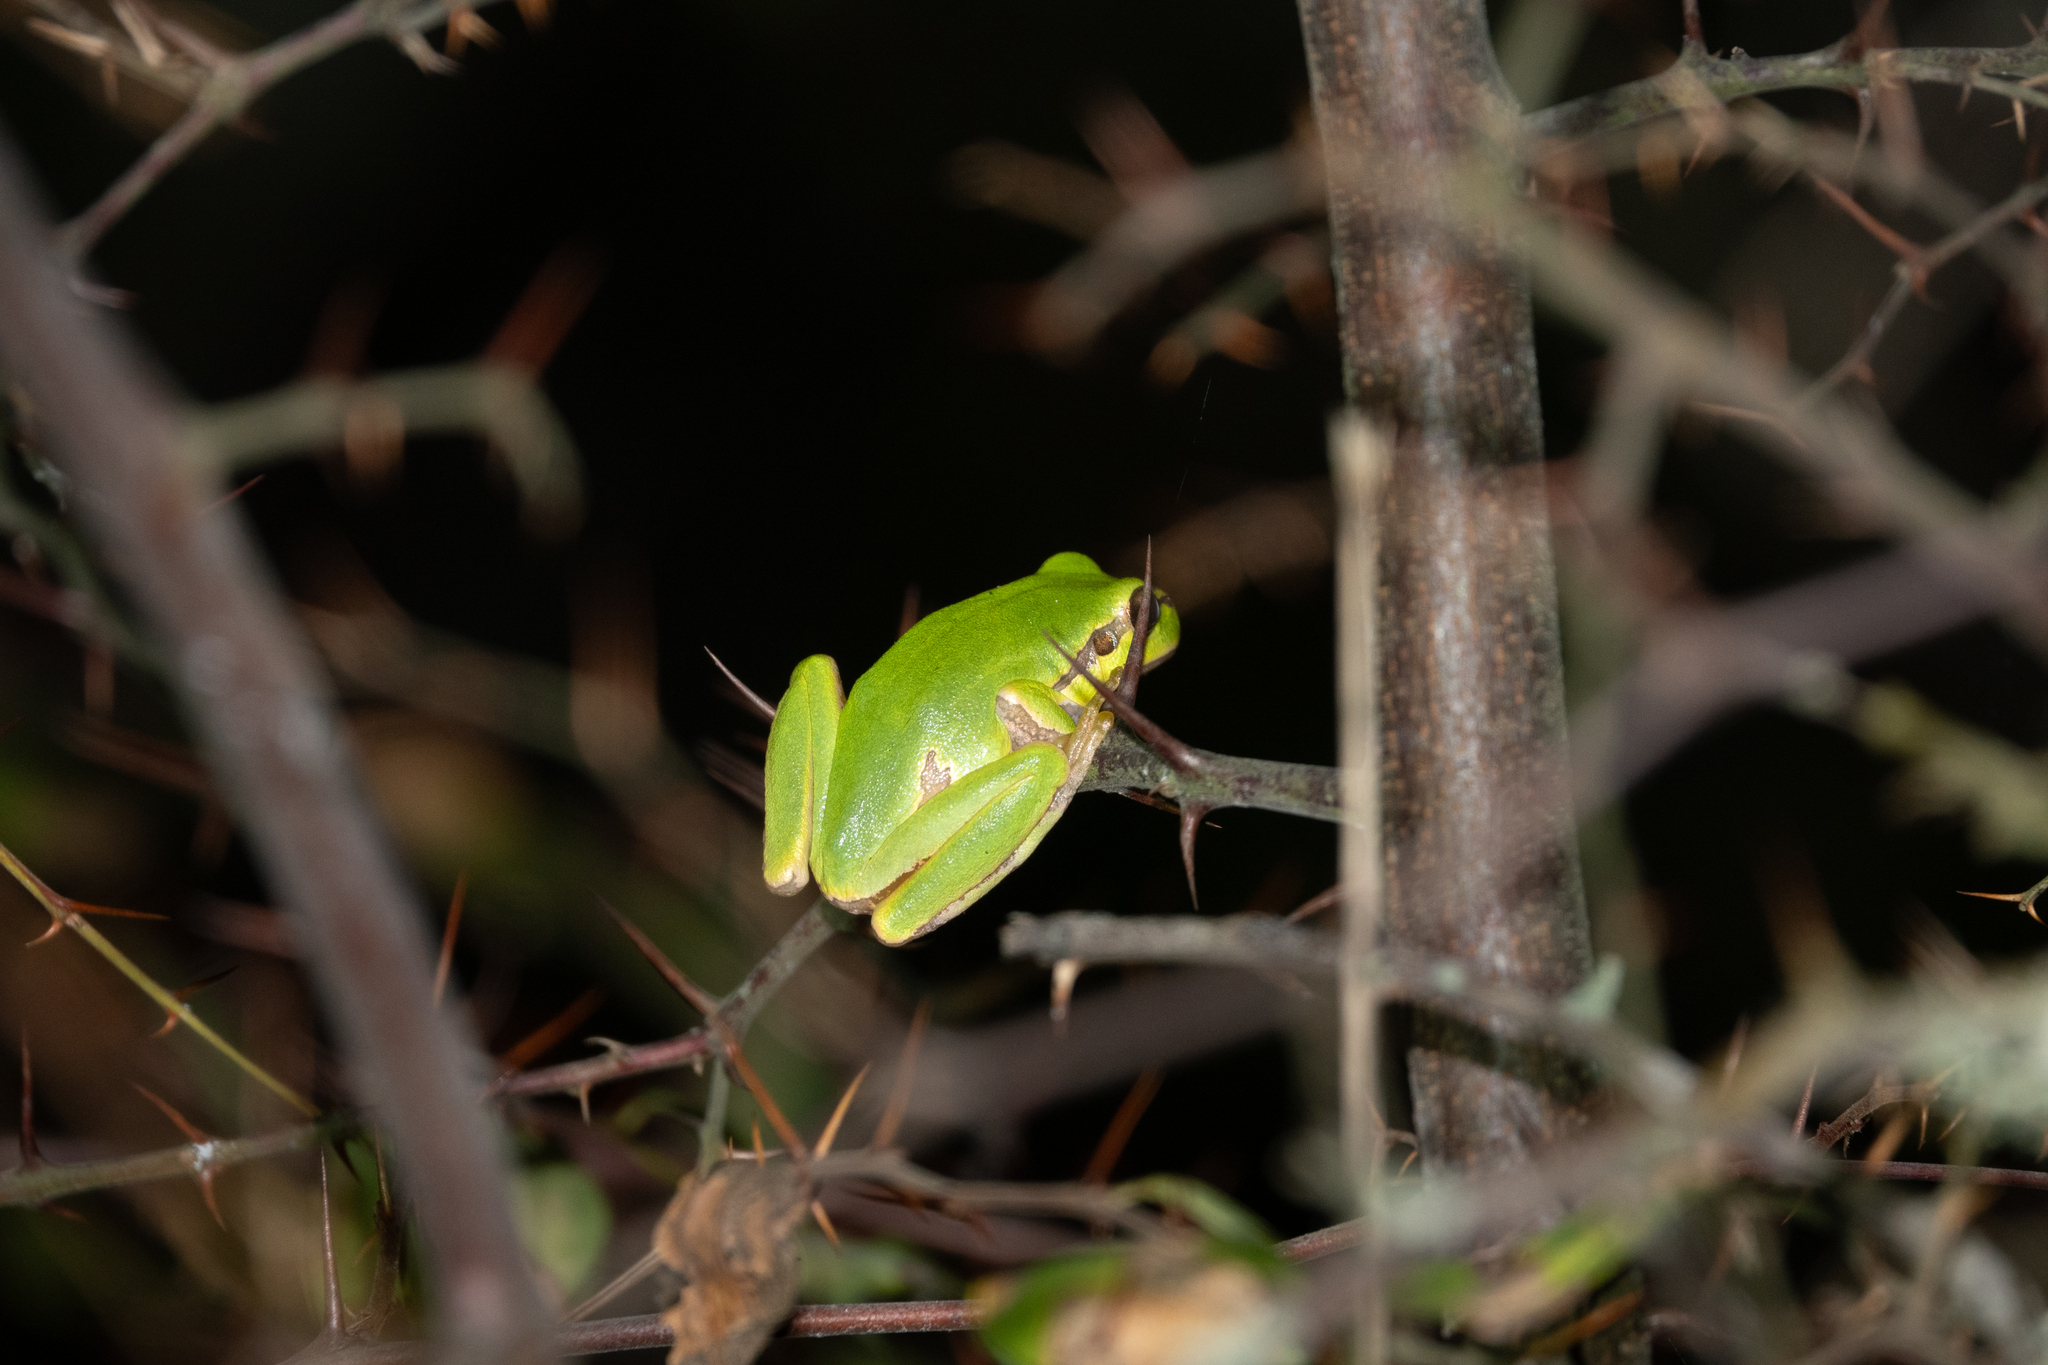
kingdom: Animalia
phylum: Chordata
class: Amphibia
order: Anura
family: Hylidae
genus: Hyla
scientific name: Hyla orientalis
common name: Caucasian treefrog
